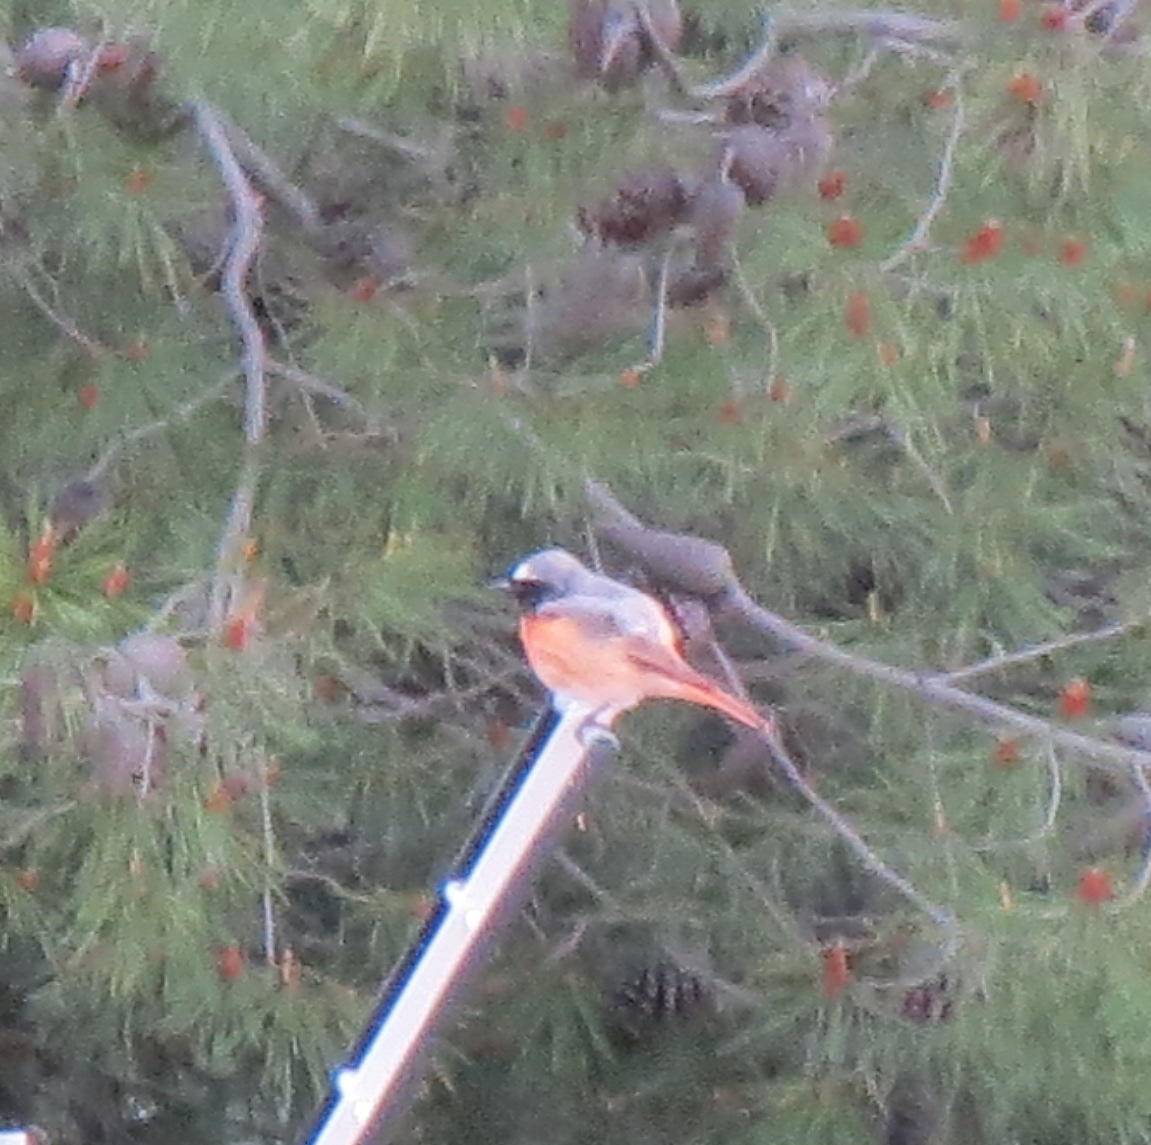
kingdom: Animalia
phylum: Chordata
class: Aves
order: Passeriformes
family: Muscicapidae
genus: Phoenicurus
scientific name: Phoenicurus phoenicurus
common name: Common redstart
